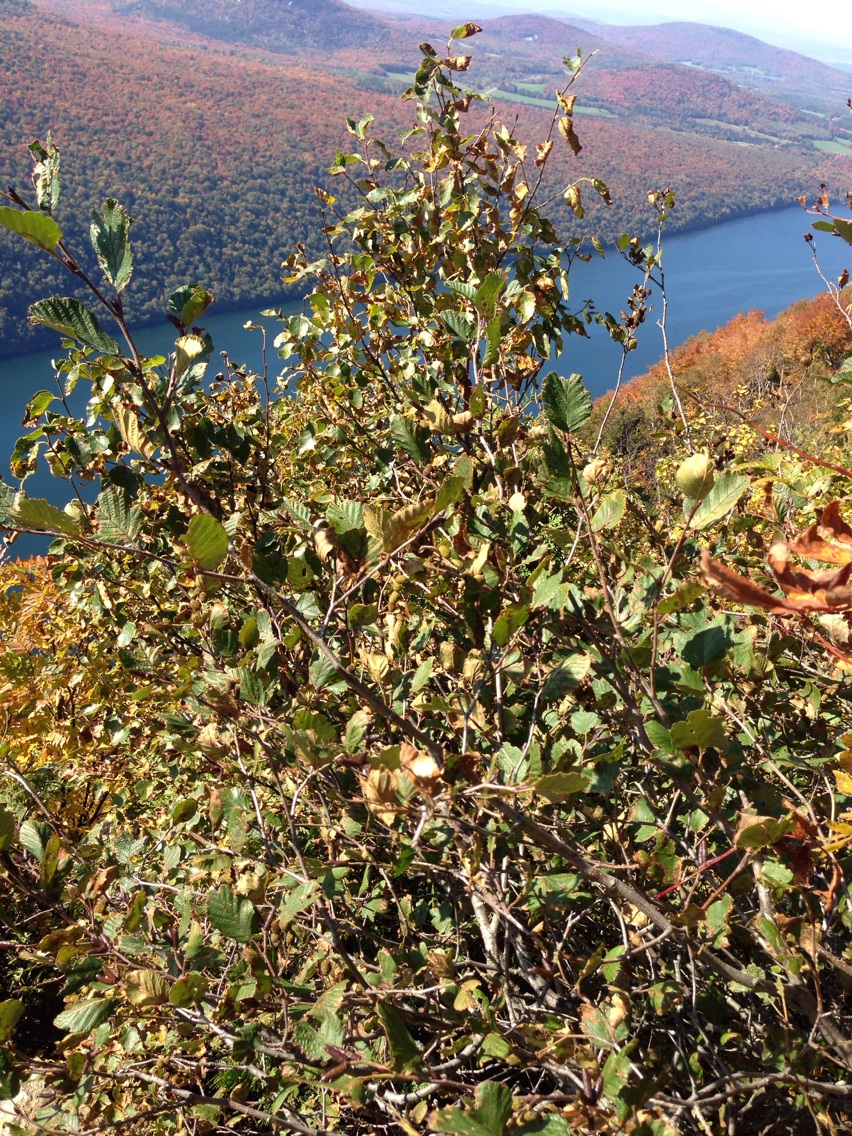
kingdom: Plantae
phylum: Tracheophyta
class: Magnoliopsida
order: Fagales
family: Betulaceae
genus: Alnus
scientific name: Alnus alnobetula
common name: Green alder
